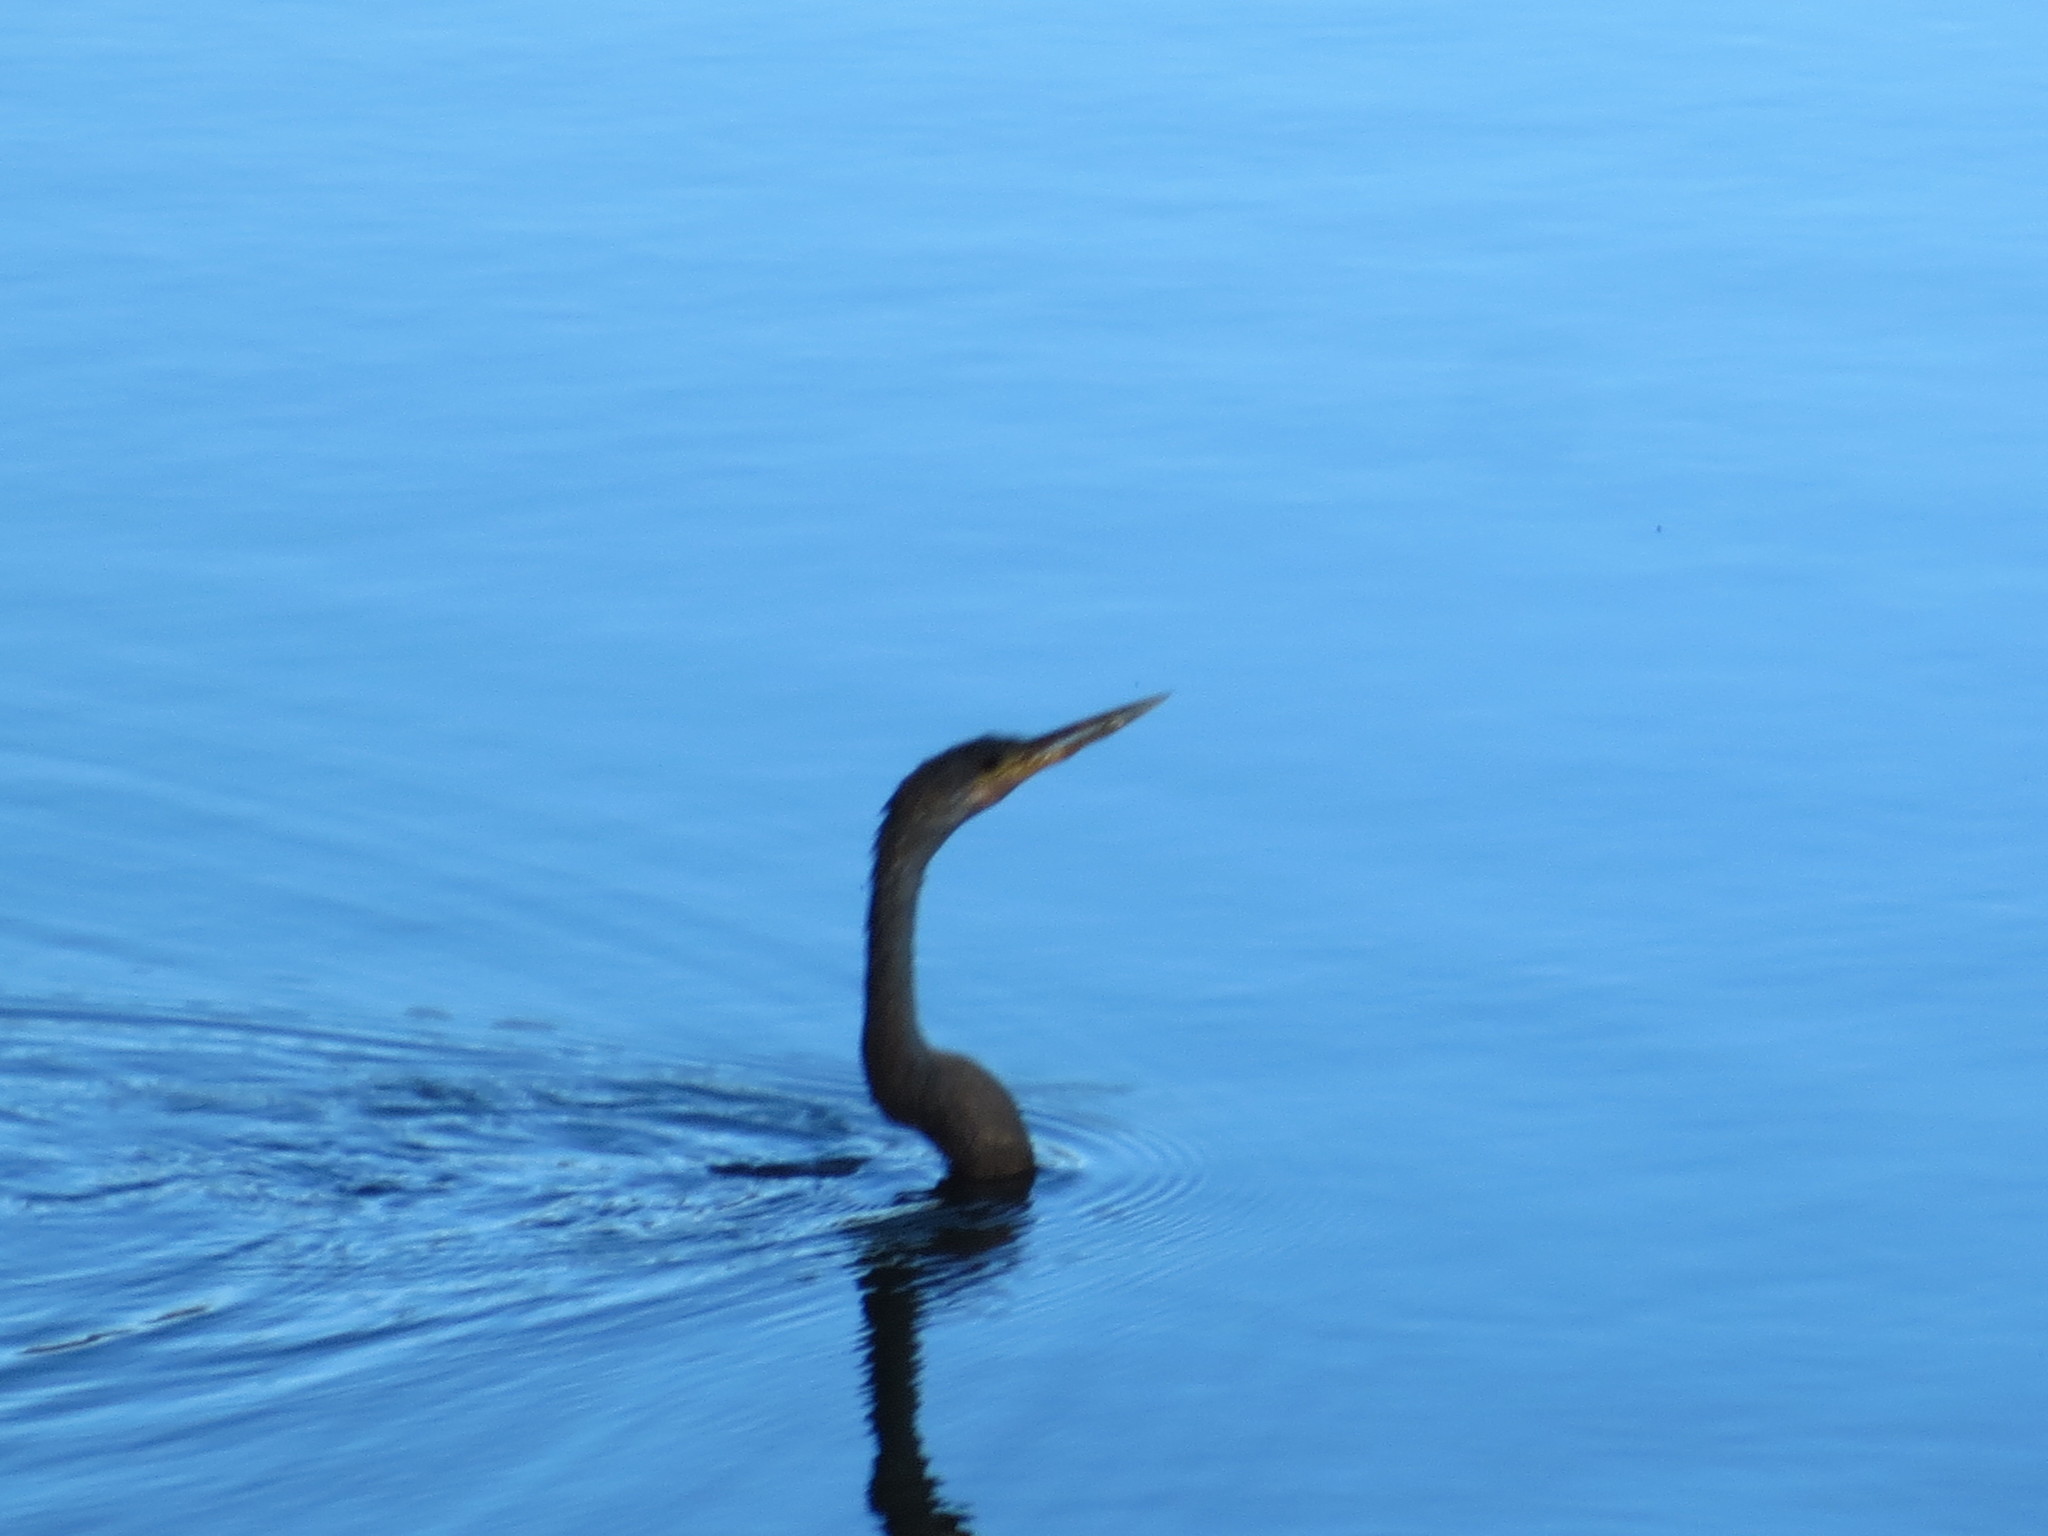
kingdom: Animalia
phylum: Chordata
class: Aves
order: Suliformes
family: Anhingidae
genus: Anhinga
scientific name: Anhinga anhinga
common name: Anhinga
